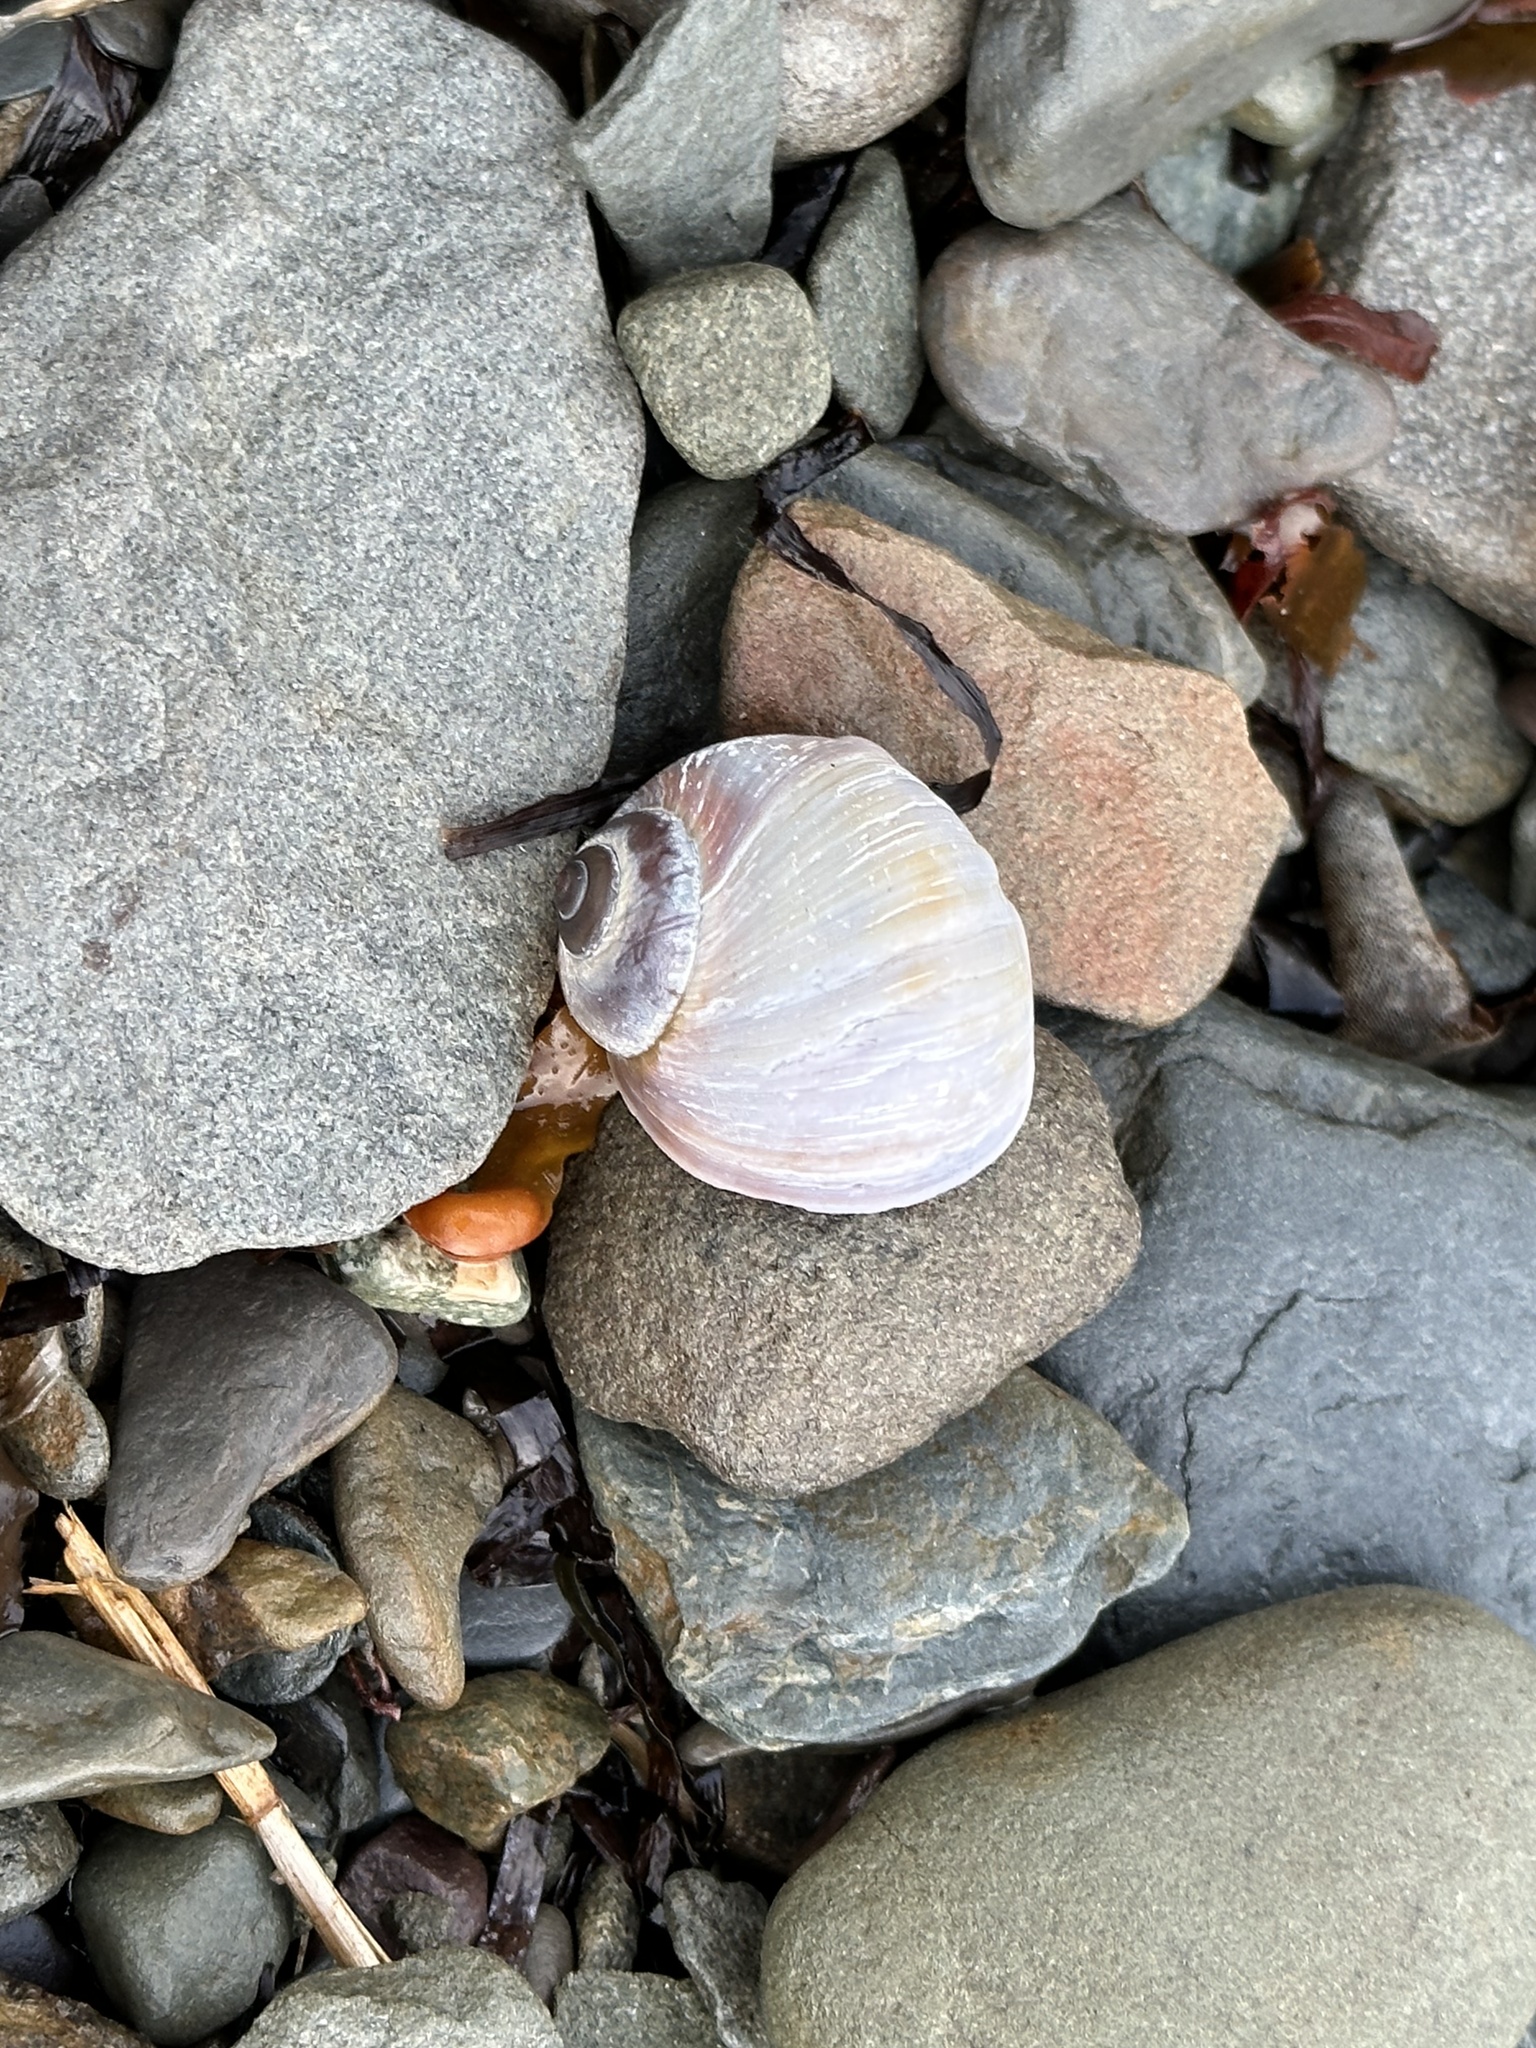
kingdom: Animalia
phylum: Mollusca
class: Gastropoda
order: Littorinimorpha
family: Naticidae
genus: Euspira
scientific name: Euspira heros
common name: Common northern moonsnail
